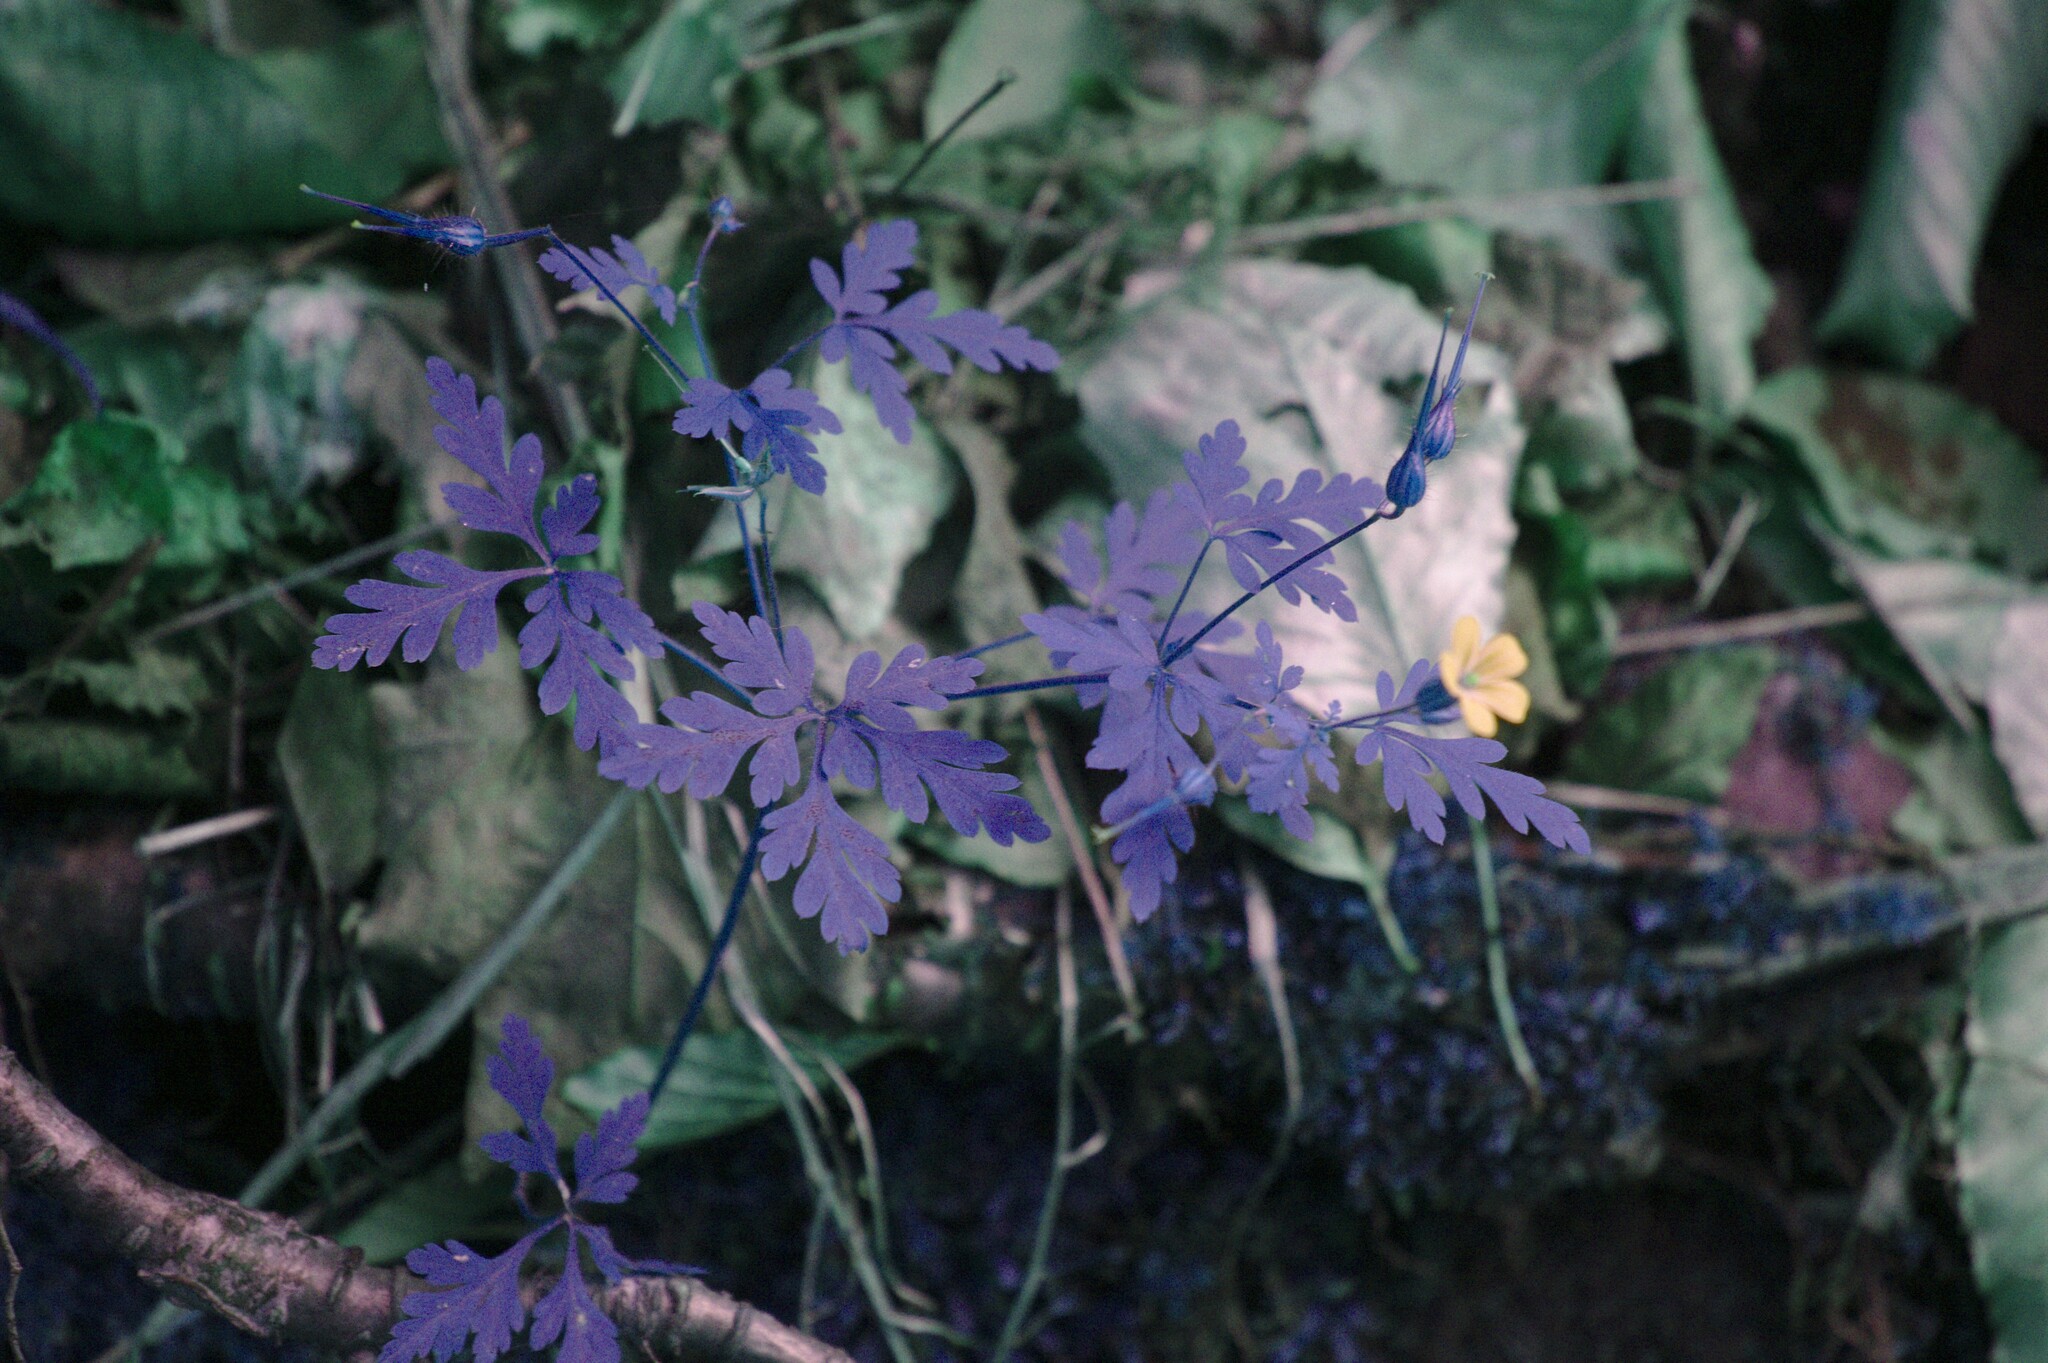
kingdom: Plantae
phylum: Tracheophyta
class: Magnoliopsida
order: Geraniales
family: Geraniaceae
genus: Geranium
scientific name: Geranium robertianum
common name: Herb-robert
